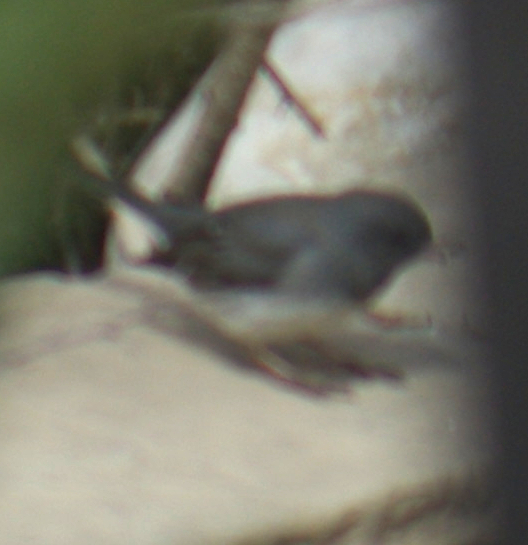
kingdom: Animalia
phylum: Chordata
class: Aves
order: Passeriformes
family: Passerellidae
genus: Junco
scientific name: Junco hyemalis
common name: Dark-eyed junco
